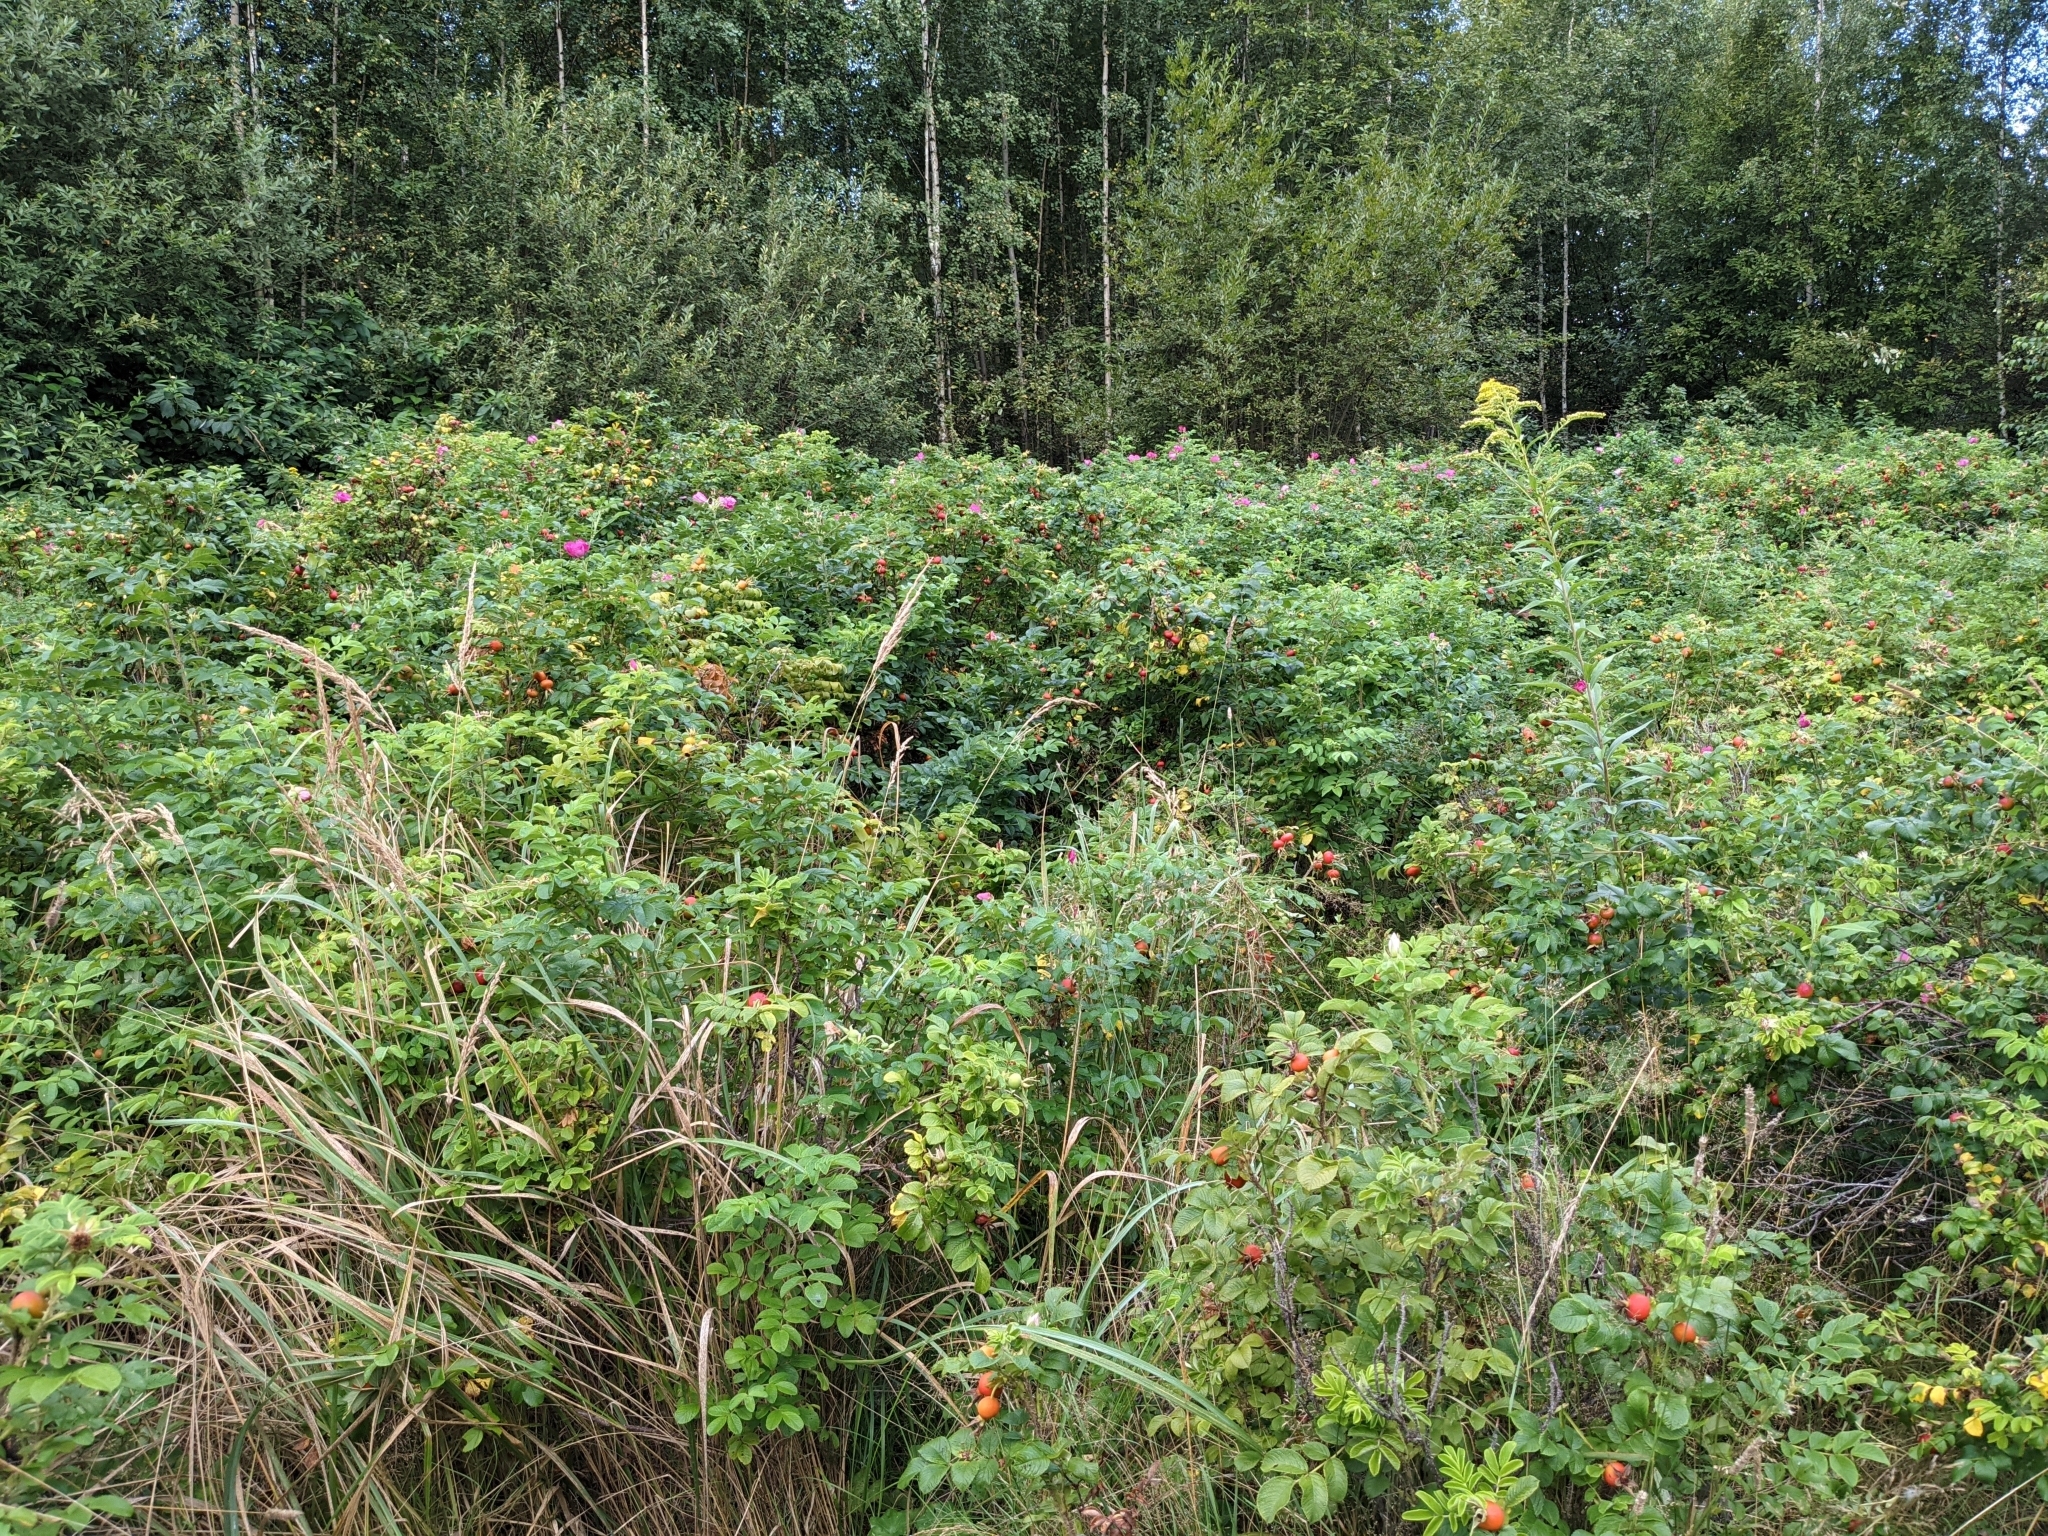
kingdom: Plantae
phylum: Tracheophyta
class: Magnoliopsida
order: Rosales
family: Rosaceae
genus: Rosa
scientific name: Rosa rugosa
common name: Japanese rose
